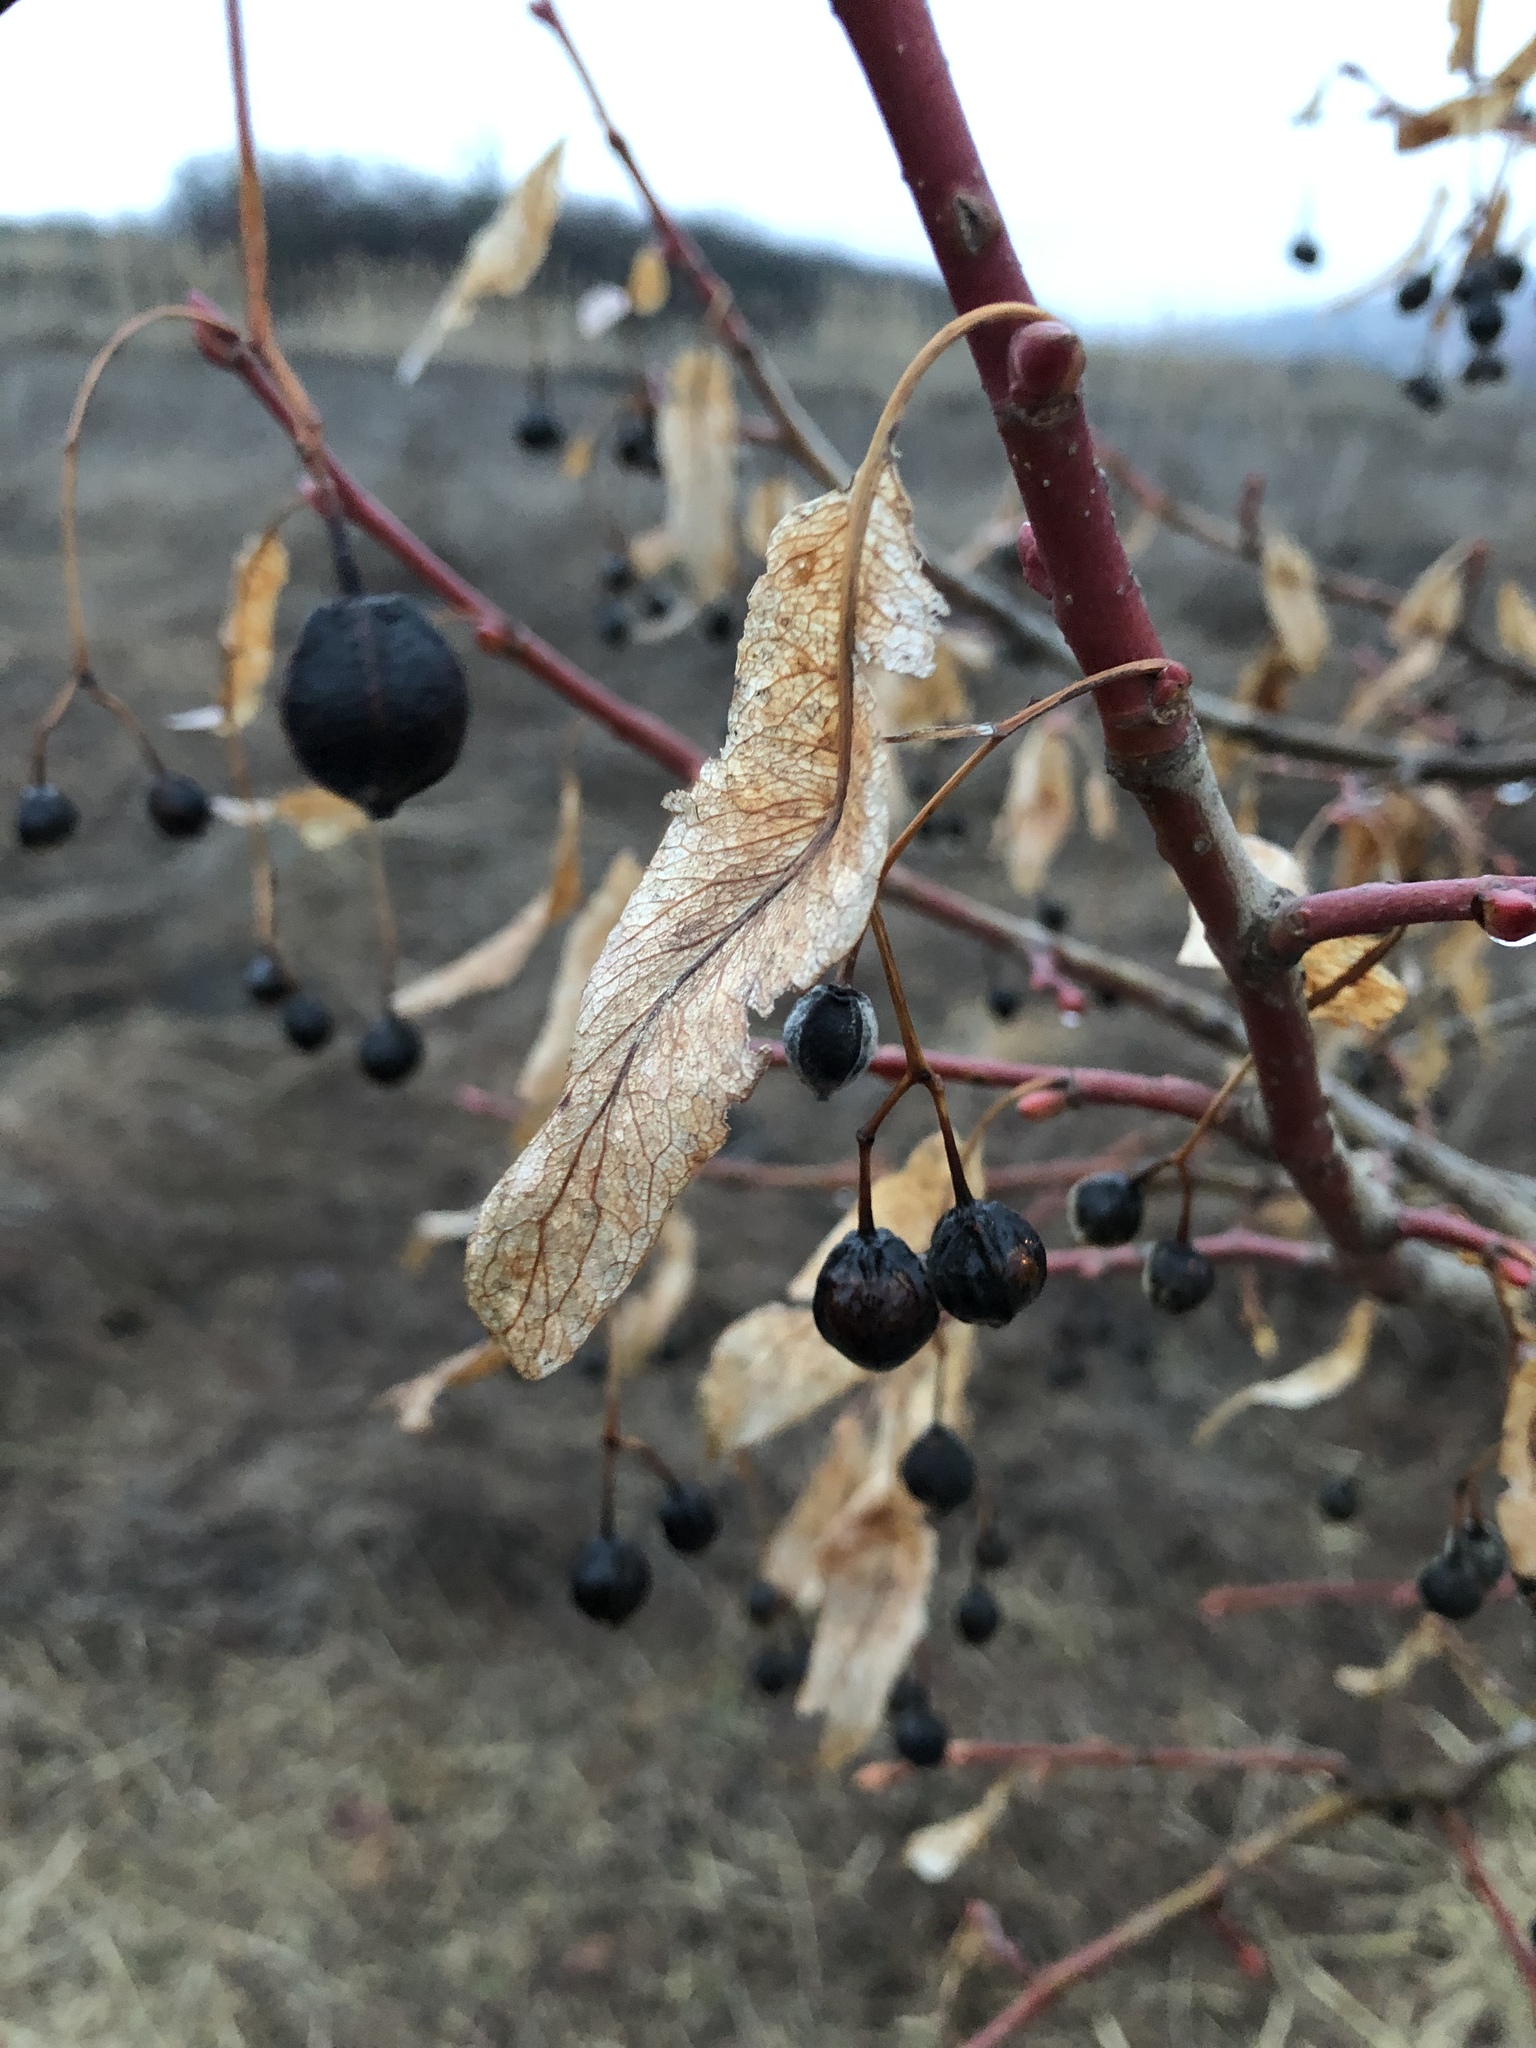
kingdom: Plantae
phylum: Tracheophyta
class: Magnoliopsida
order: Malvales
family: Malvaceae
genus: Tilia
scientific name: Tilia cordata
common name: Small-leaved lime
